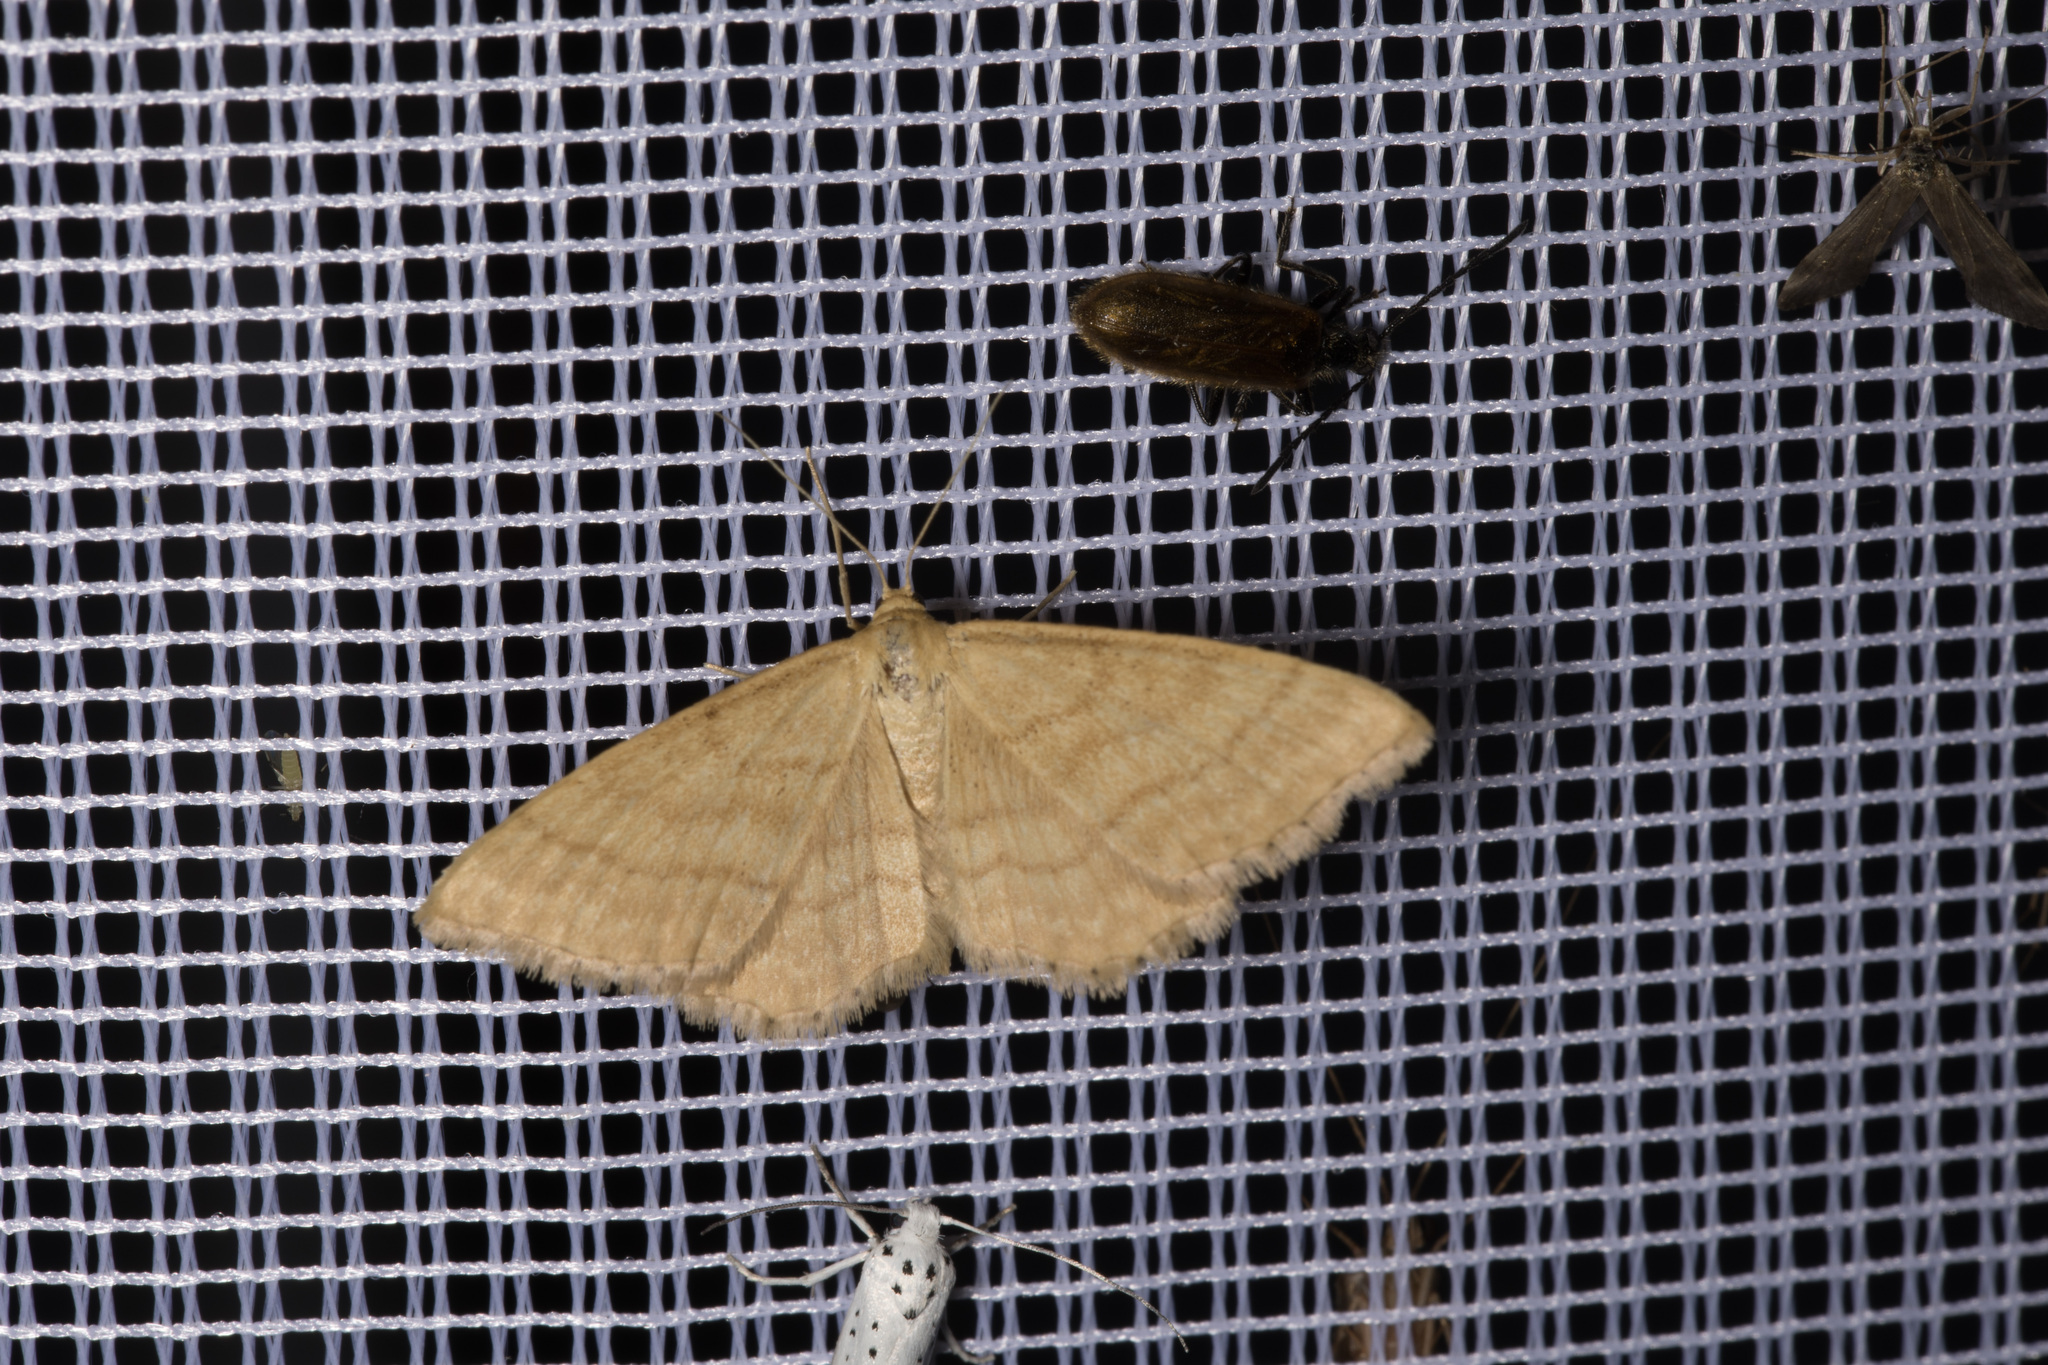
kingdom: Animalia
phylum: Arthropoda
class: Insecta
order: Lepidoptera
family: Geometridae
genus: Idaea
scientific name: Idaea ochrata
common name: Bright wave
